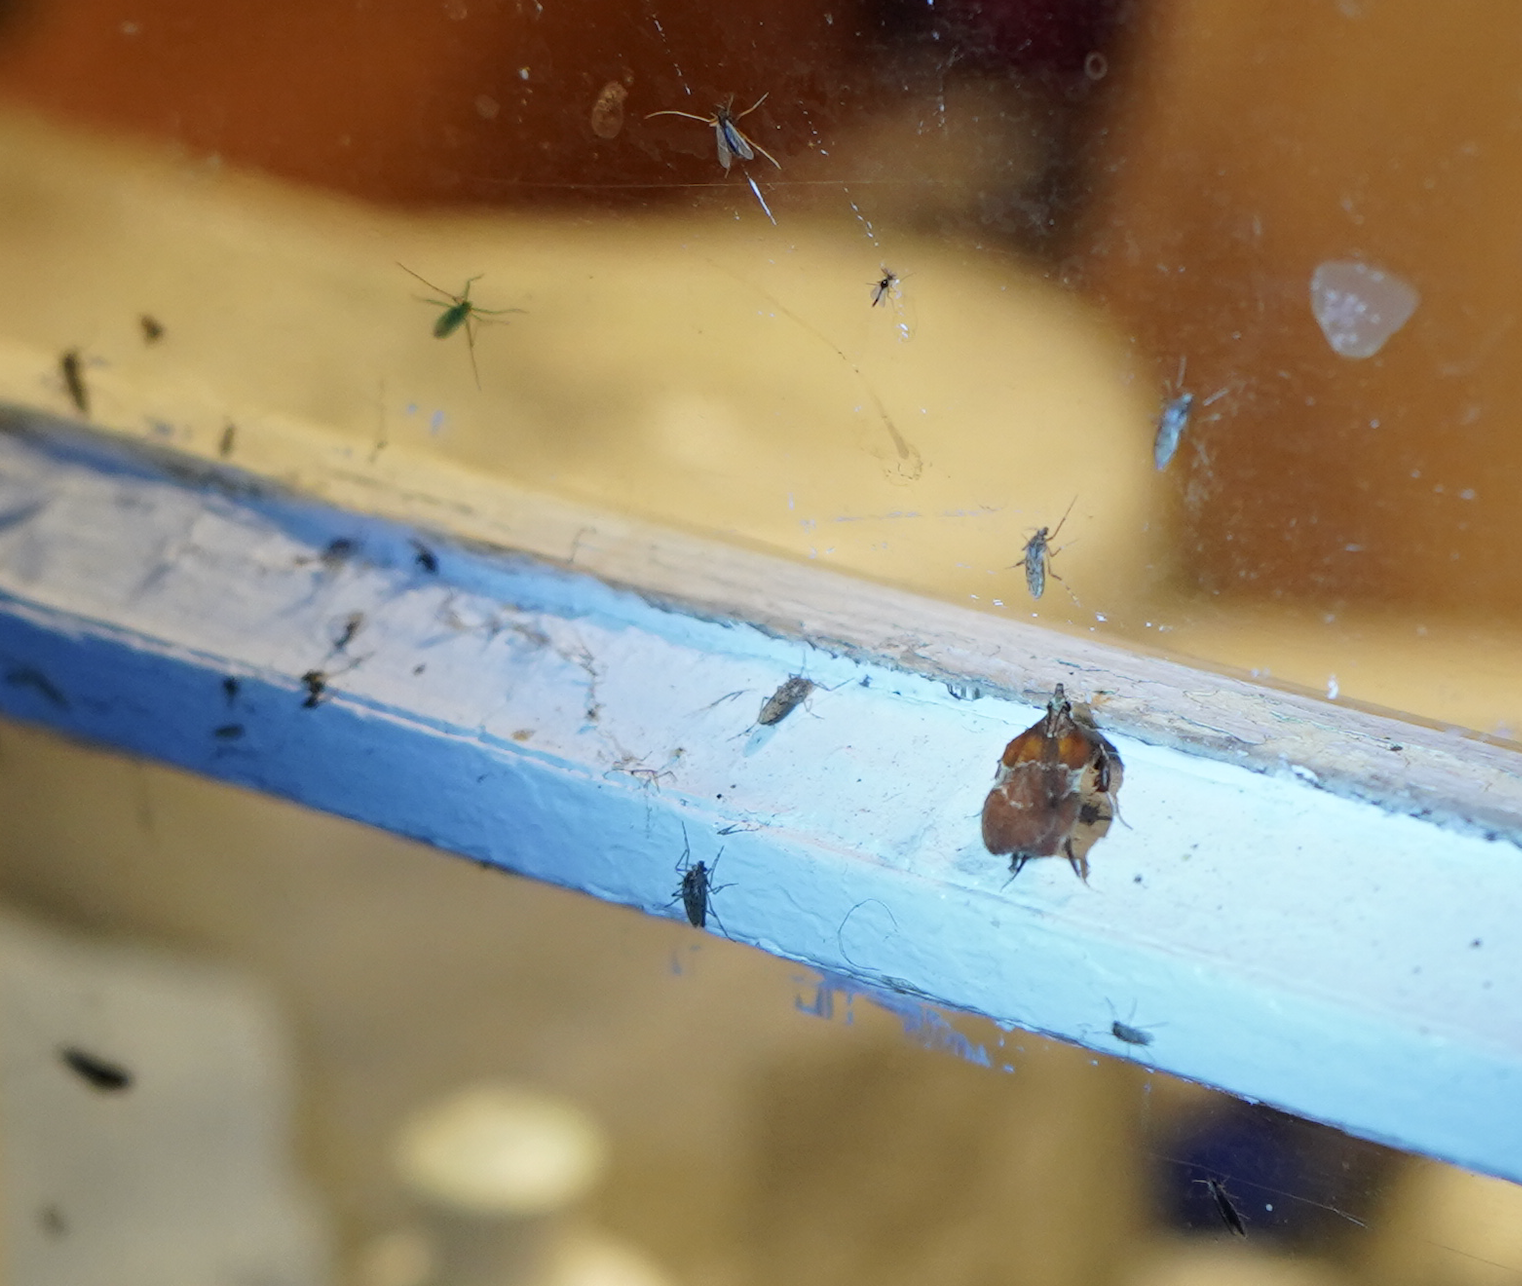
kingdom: Animalia
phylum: Arthropoda
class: Insecta
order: Lepidoptera
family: Pyralidae
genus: Galasa
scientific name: Galasa nigrinodis
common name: Boxwood leaftier moth
